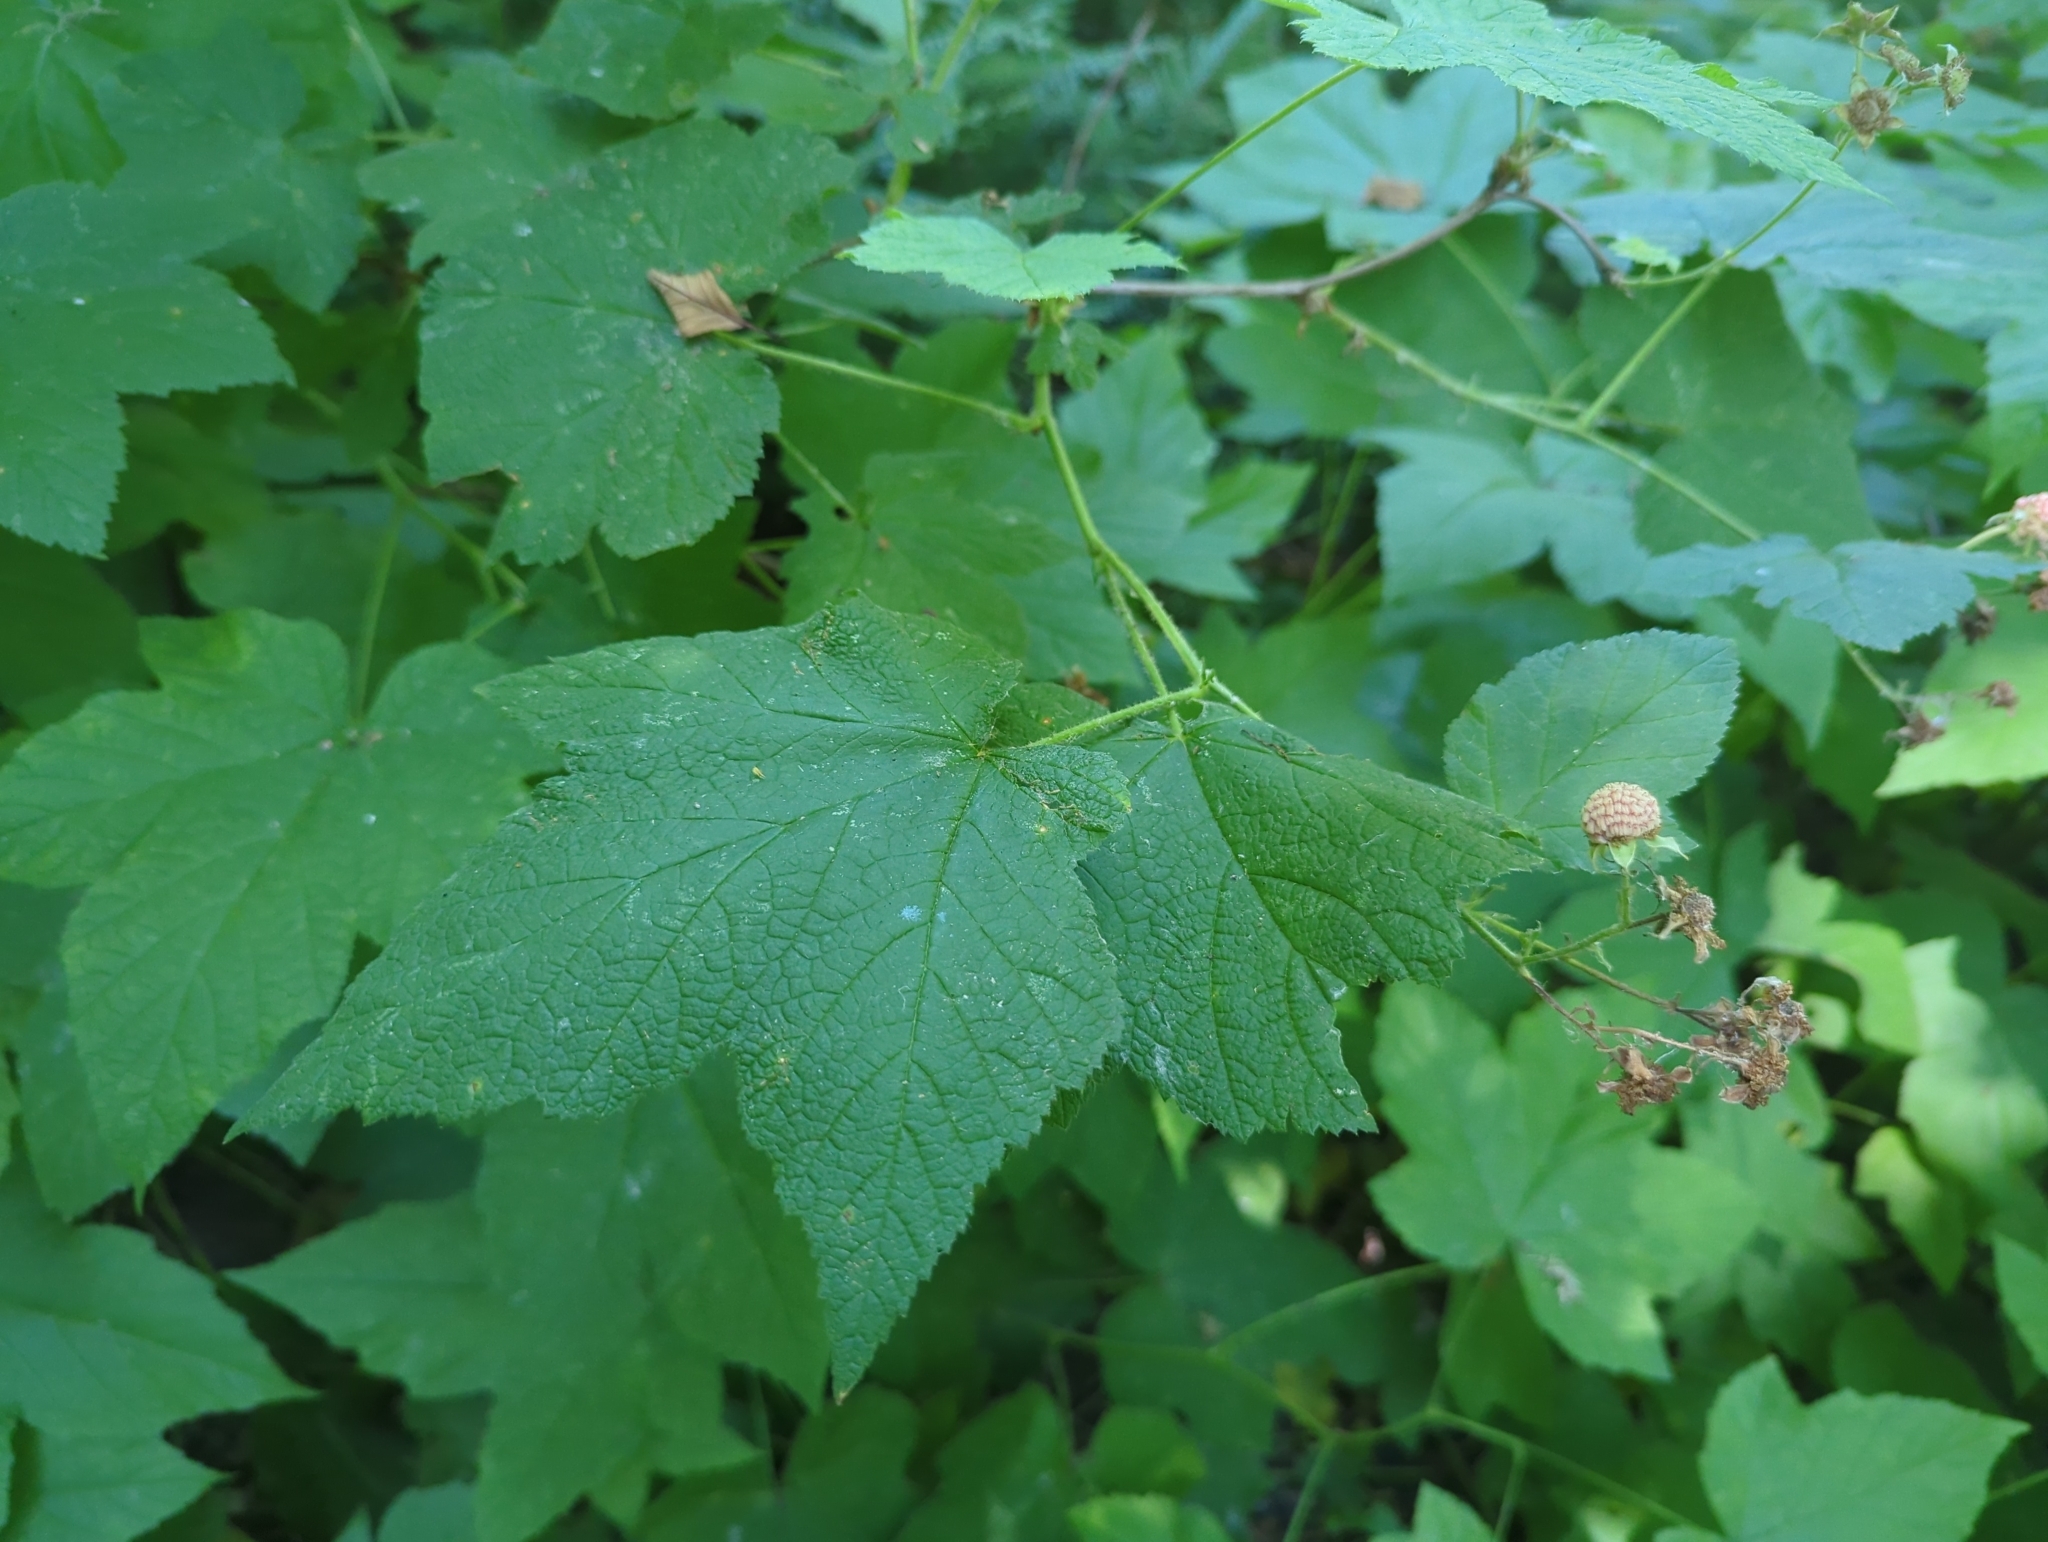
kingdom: Plantae
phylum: Tracheophyta
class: Magnoliopsida
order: Rosales
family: Rosaceae
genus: Rubus
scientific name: Rubus parviflorus
